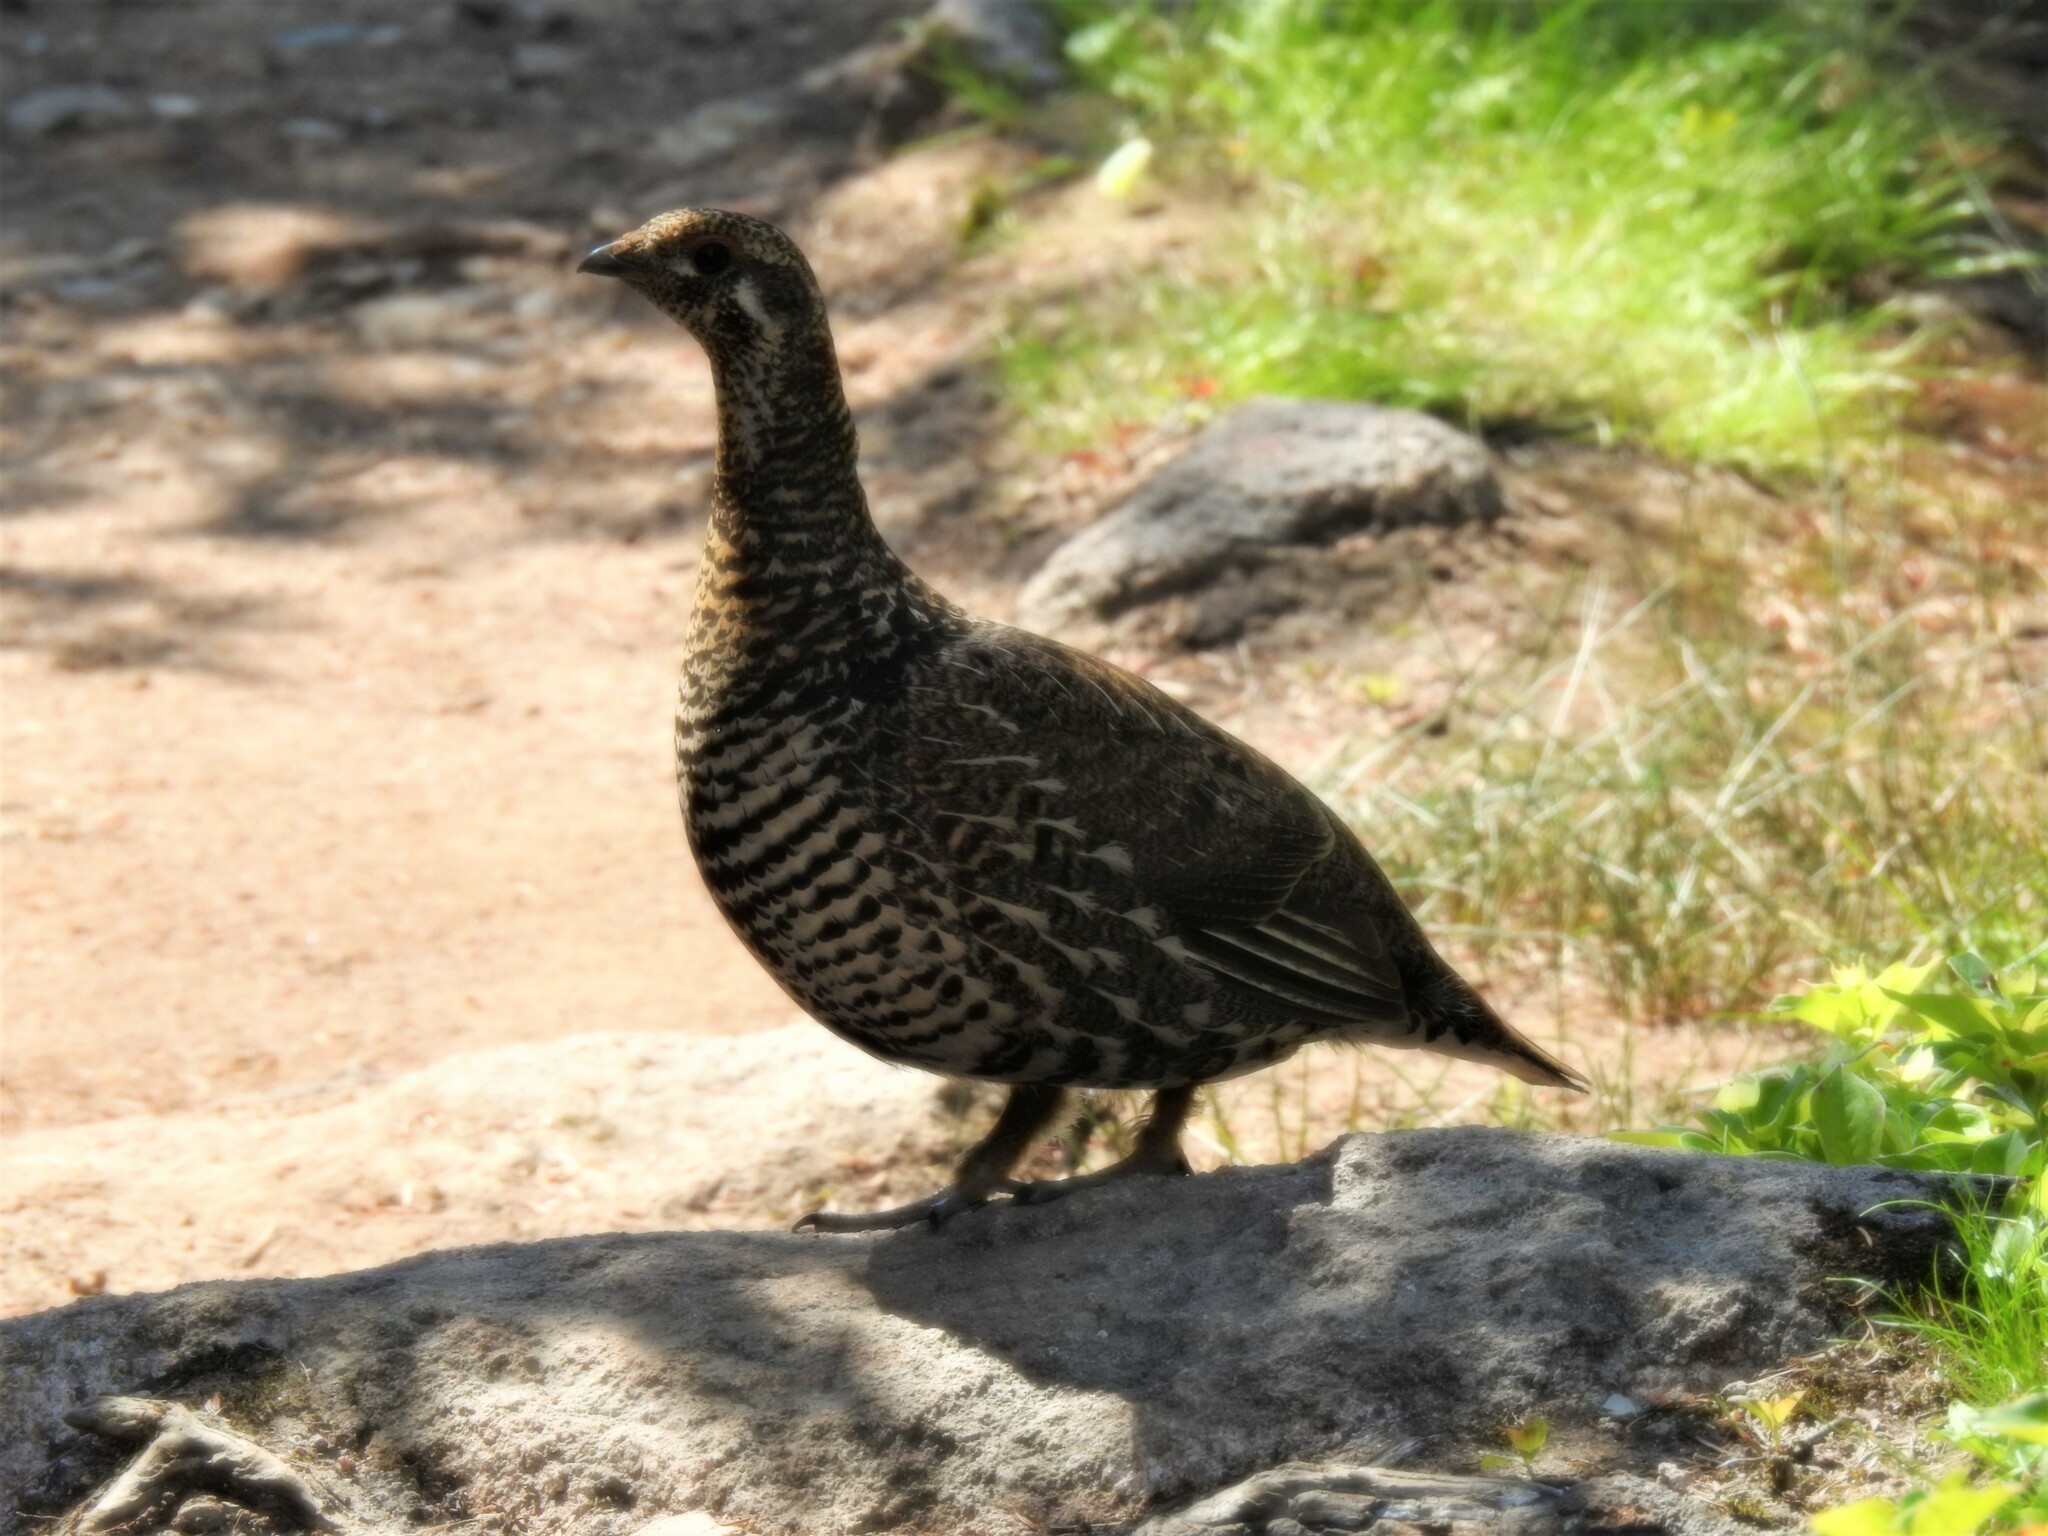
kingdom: Animalia
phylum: Chordata
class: Aves
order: Galliformes
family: Phasianidae
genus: Canachites
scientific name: Canachites canadensis
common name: Spruce grouse
